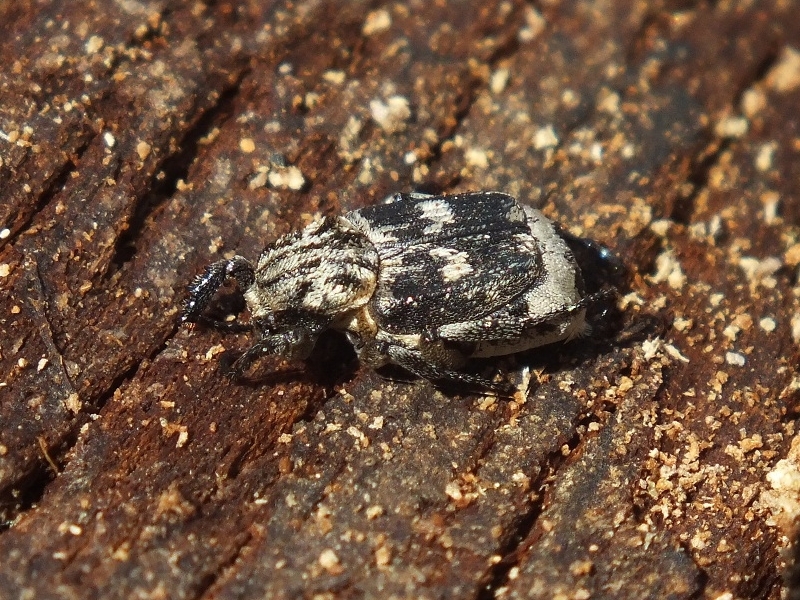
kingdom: Animalia
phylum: Arthropoda
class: Insecta
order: Coleoptera
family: Scarabaeidae
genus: Valgus
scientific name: Valgus hemipterus
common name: Bug flower chafer
